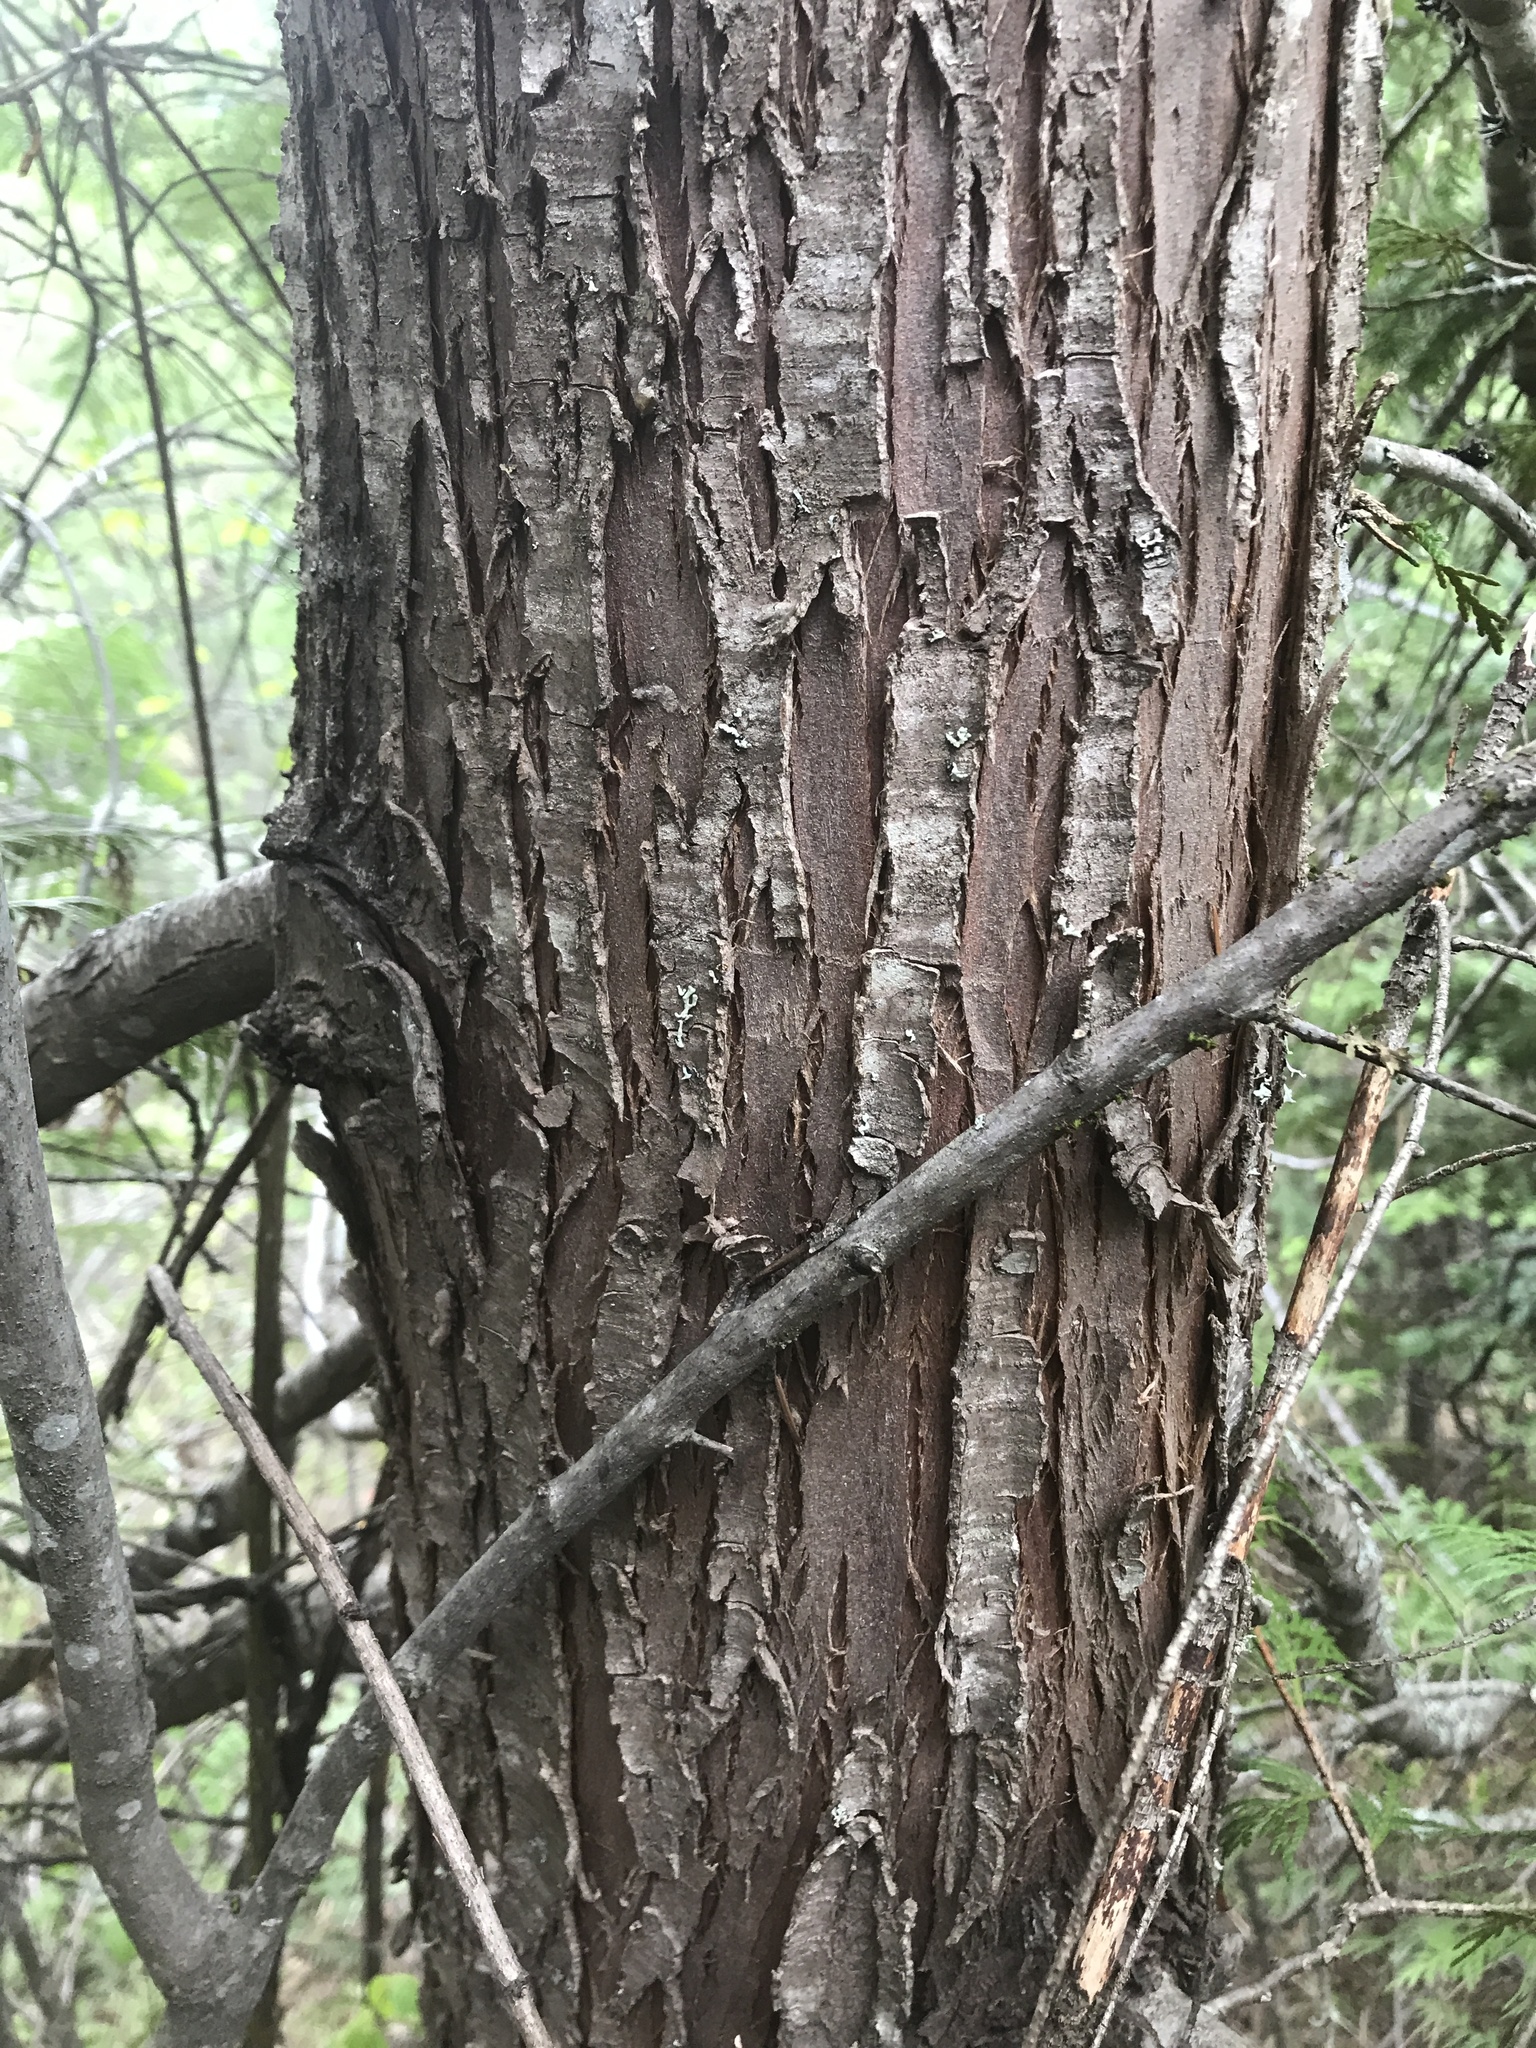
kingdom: Plantae
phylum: Tracheophyta
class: Pinopsida
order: Pinales
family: Cupressaceae
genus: Thuja
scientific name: Thuja plicata
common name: Western red-cedar
